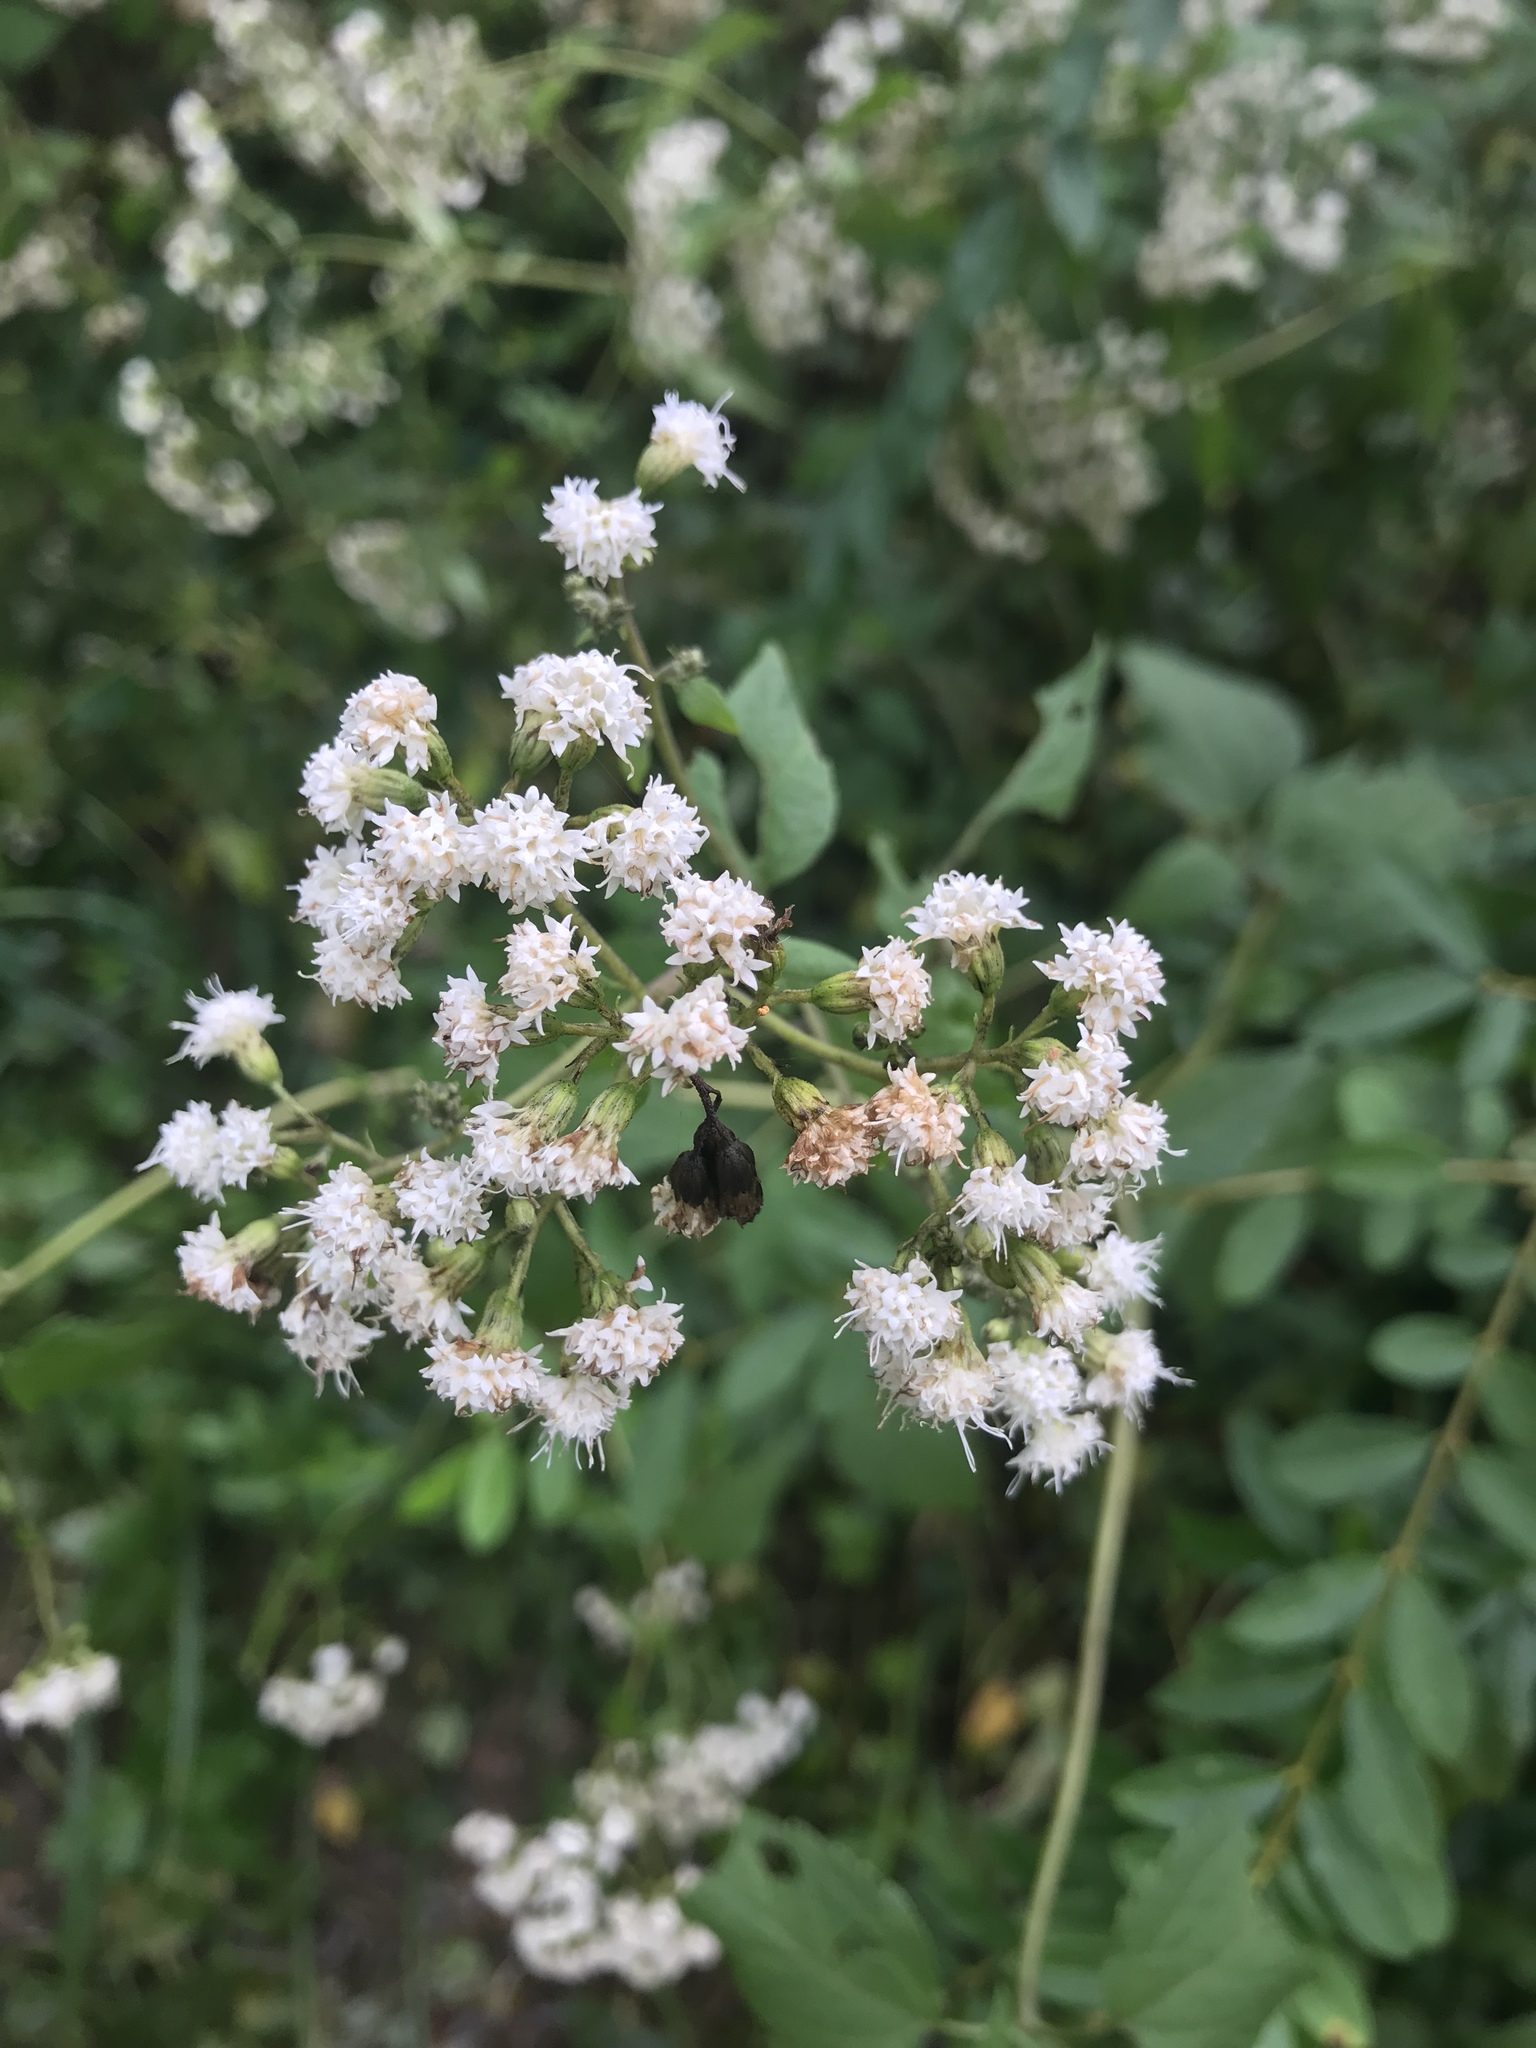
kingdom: Plantae
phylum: Tracheophyta
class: Magnoliopsida
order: Asterales
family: Asteraceae
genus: Ageratina
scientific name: Ageratina altissima
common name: White snakeroot
